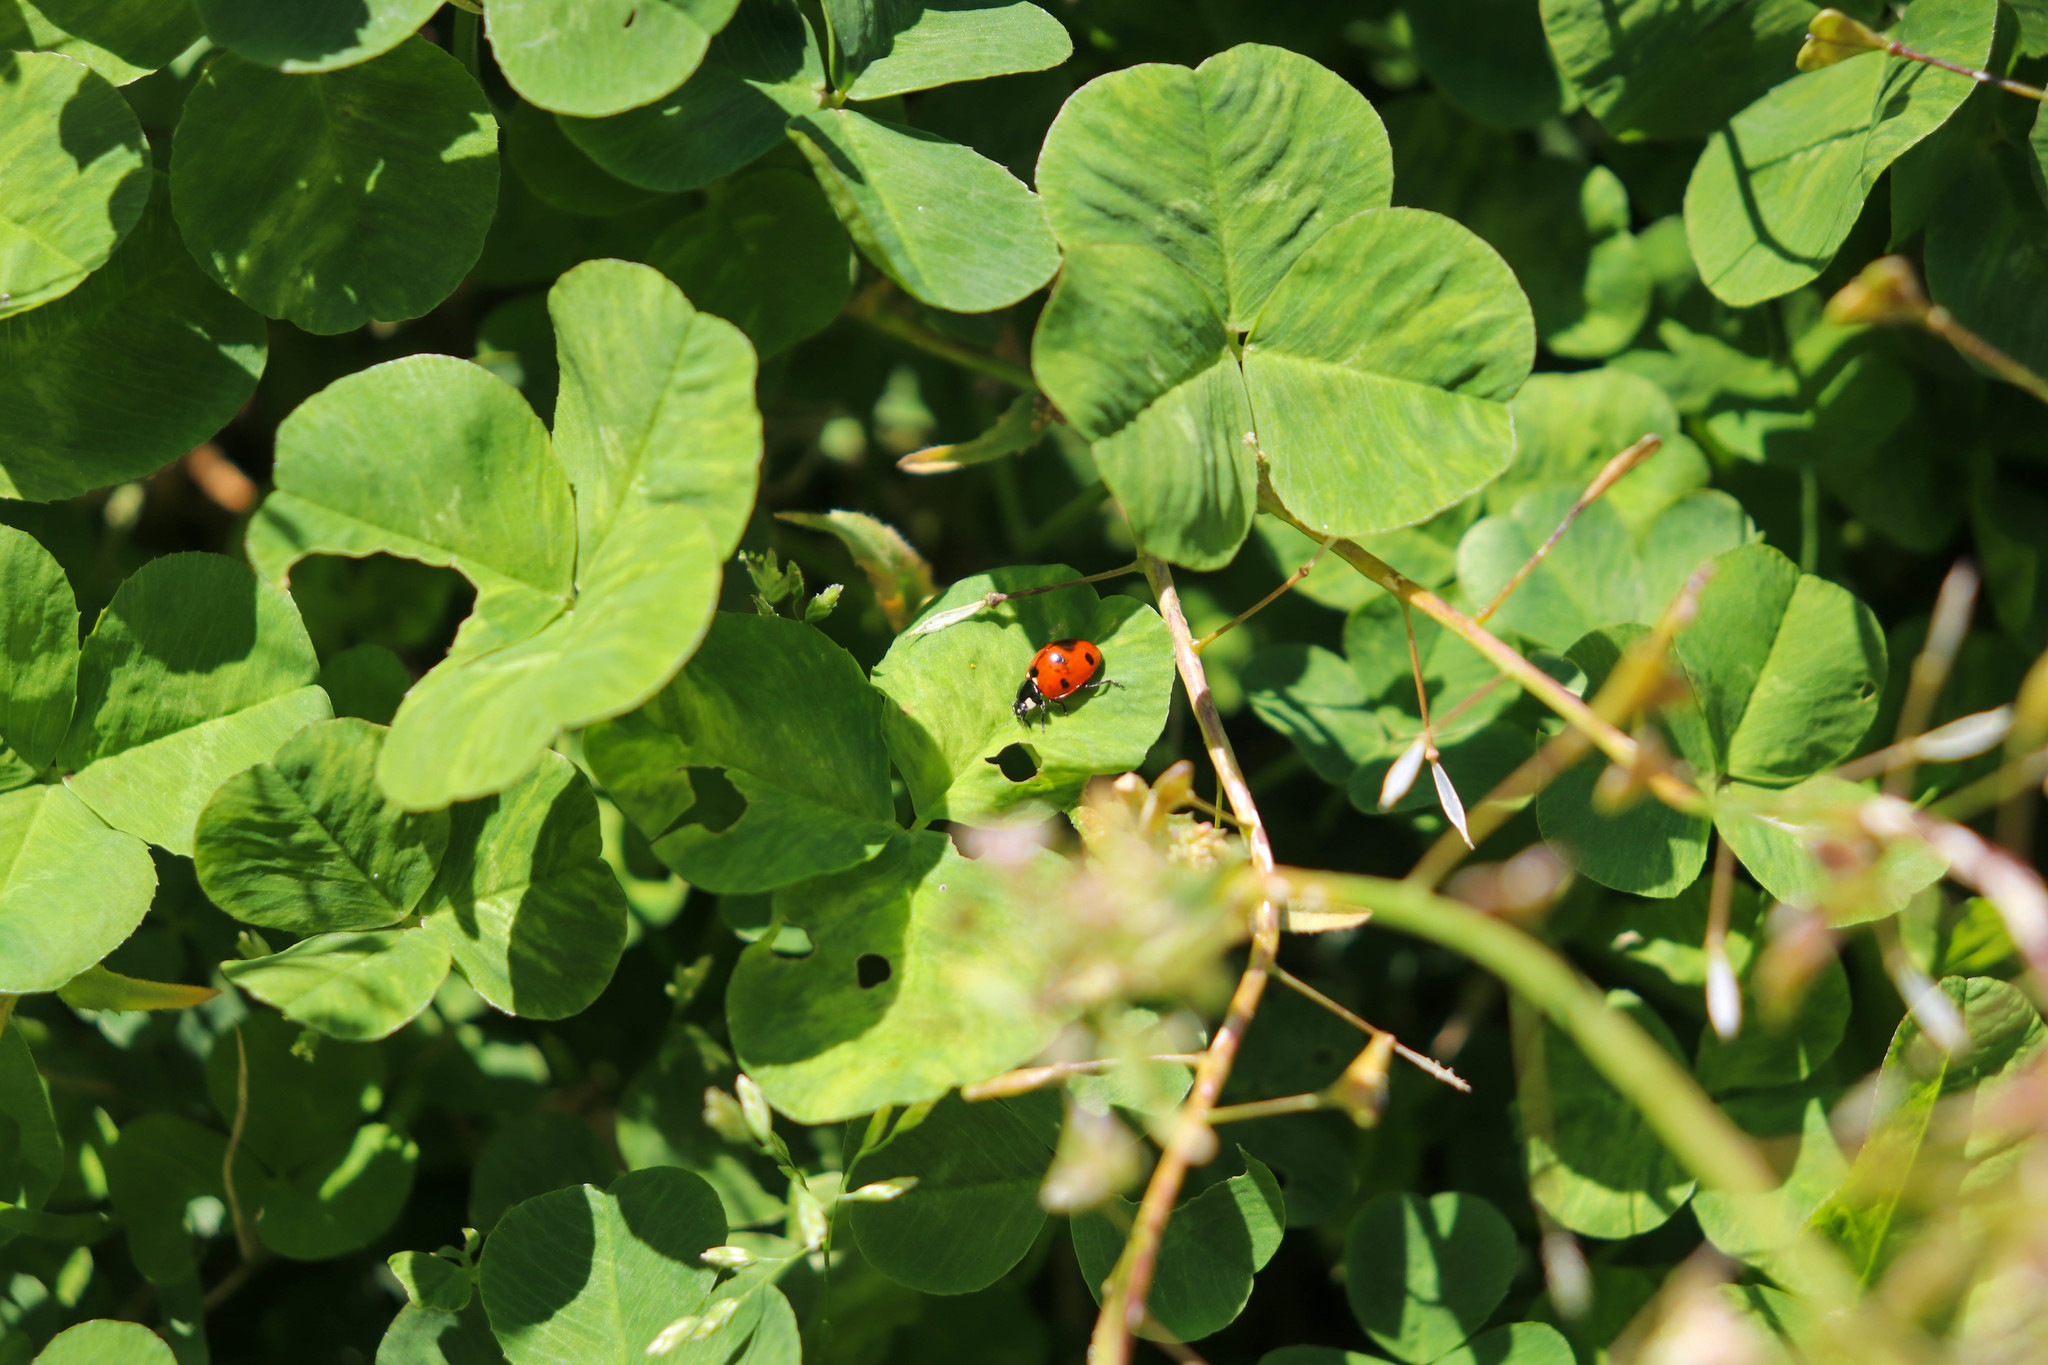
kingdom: Animalia
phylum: Arthropoda
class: Insecta
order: Coleoptera
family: Coccinellidae
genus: Coccinella
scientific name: Coccinella septempunctata
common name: Sevenspotted lady beetle
